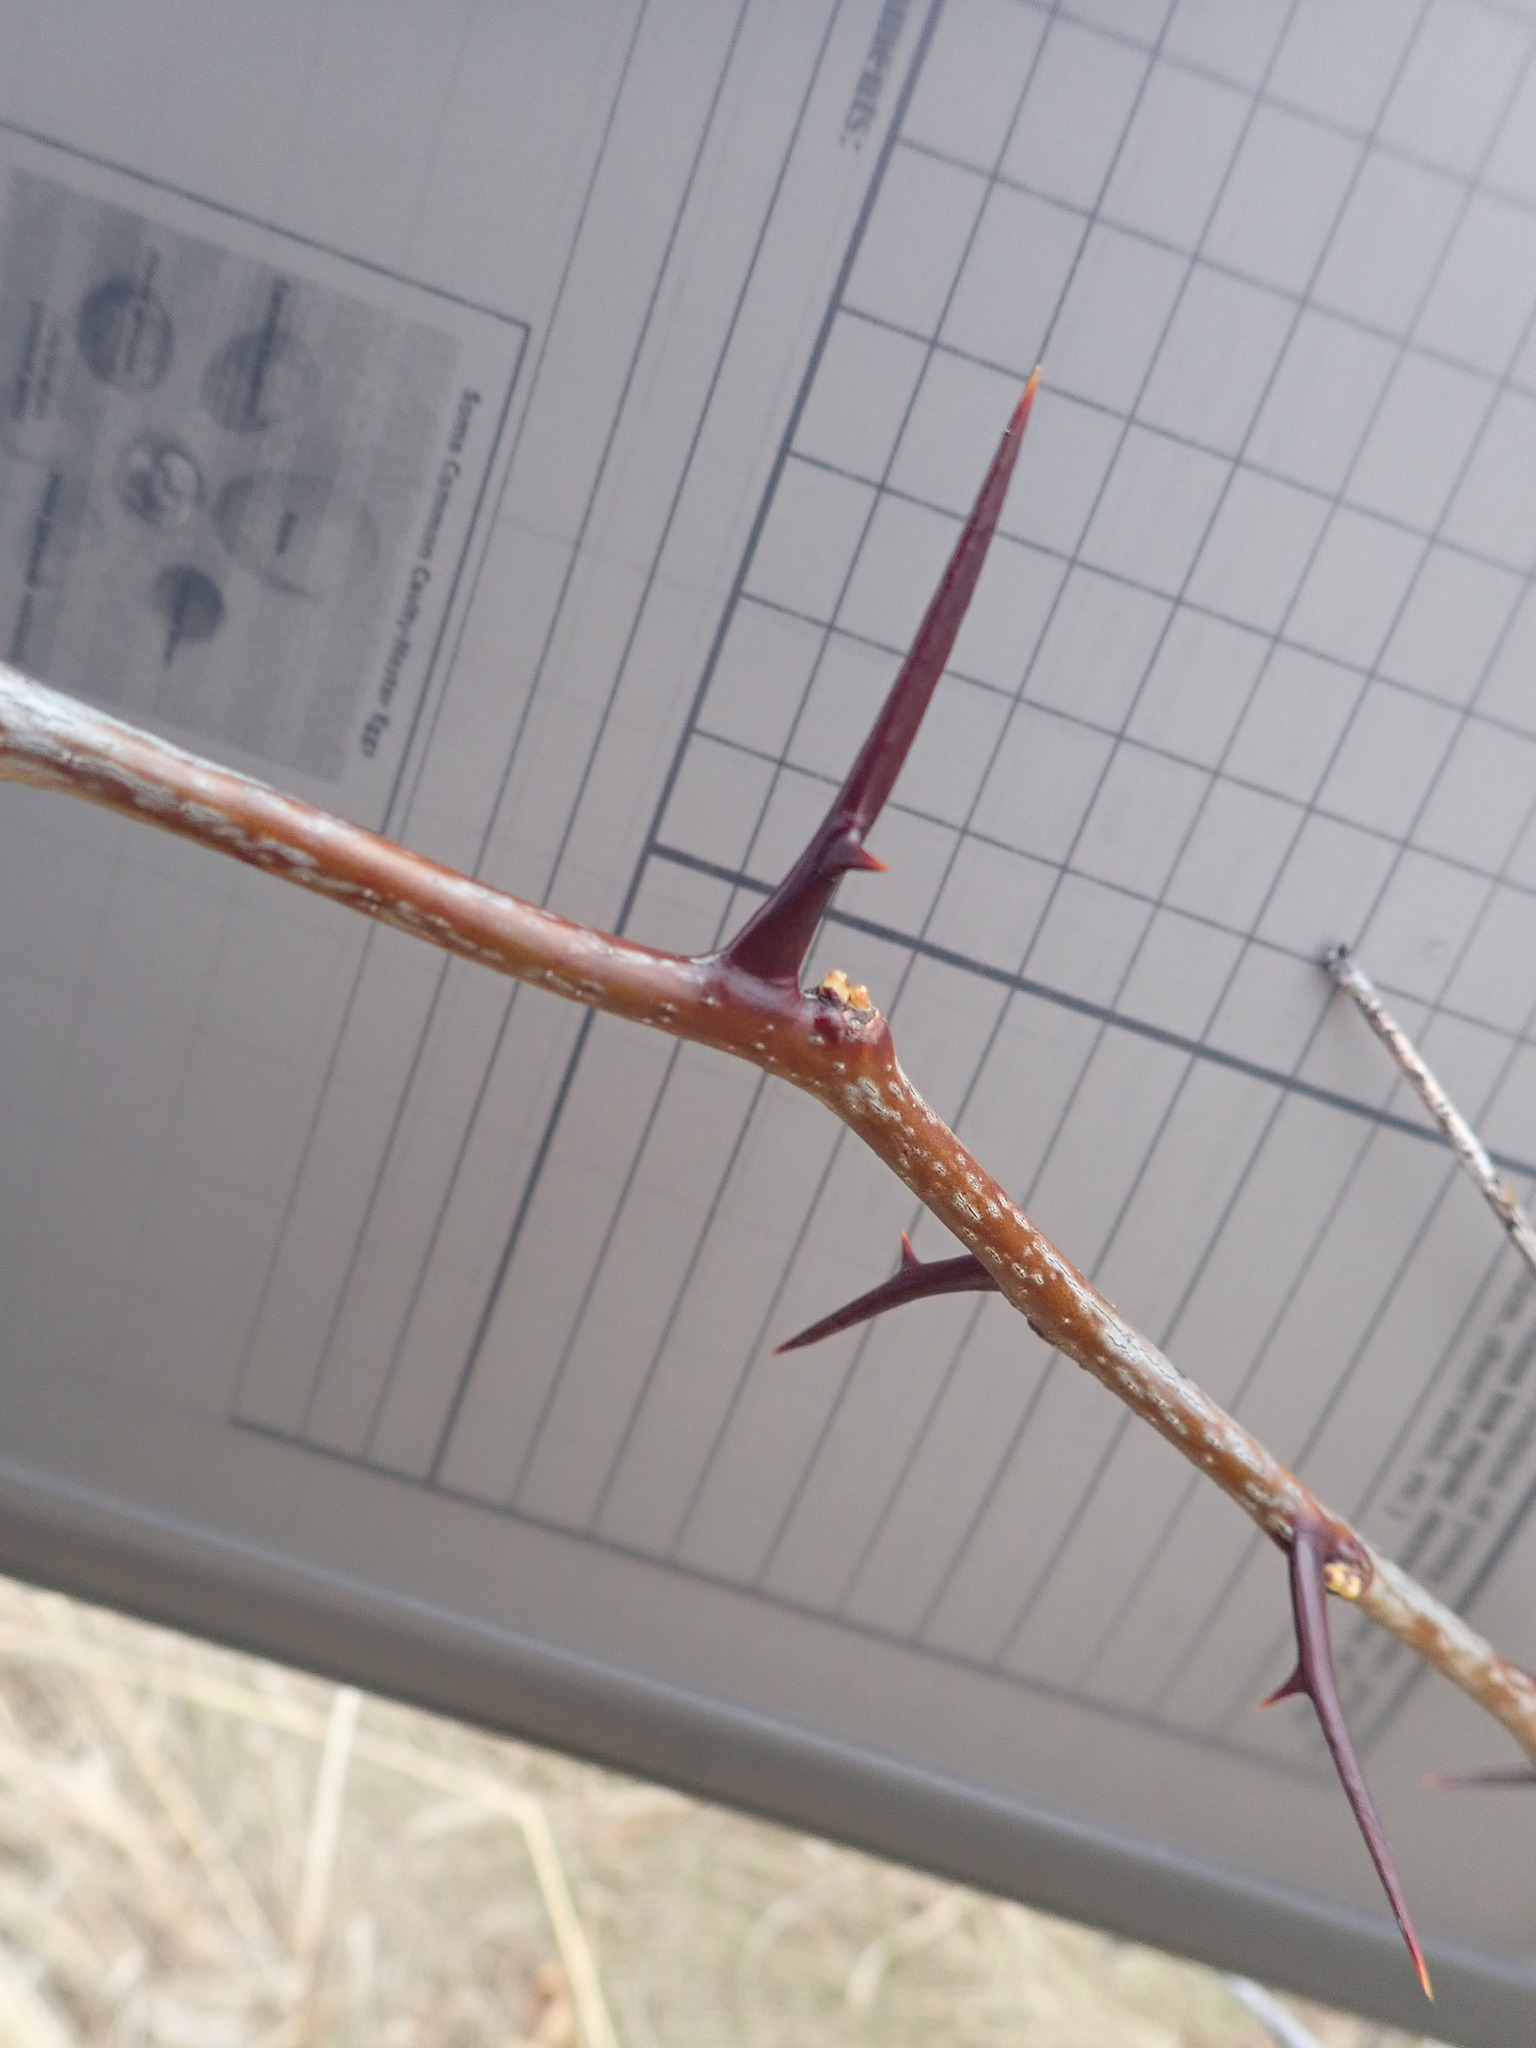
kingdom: Plantae
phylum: Tracheophyta
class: Magnoliopsida
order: Fabales
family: Fabaceae
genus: Gleditsia
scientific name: Gleditsia triacanthos
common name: Common honeylocust
